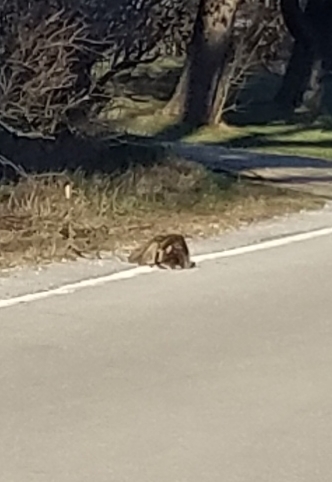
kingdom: Animalia
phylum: Chordata
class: Mammalia
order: Carnivora
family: Procyonidae
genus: Procyon
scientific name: Procyon lotor
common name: Raccoon
